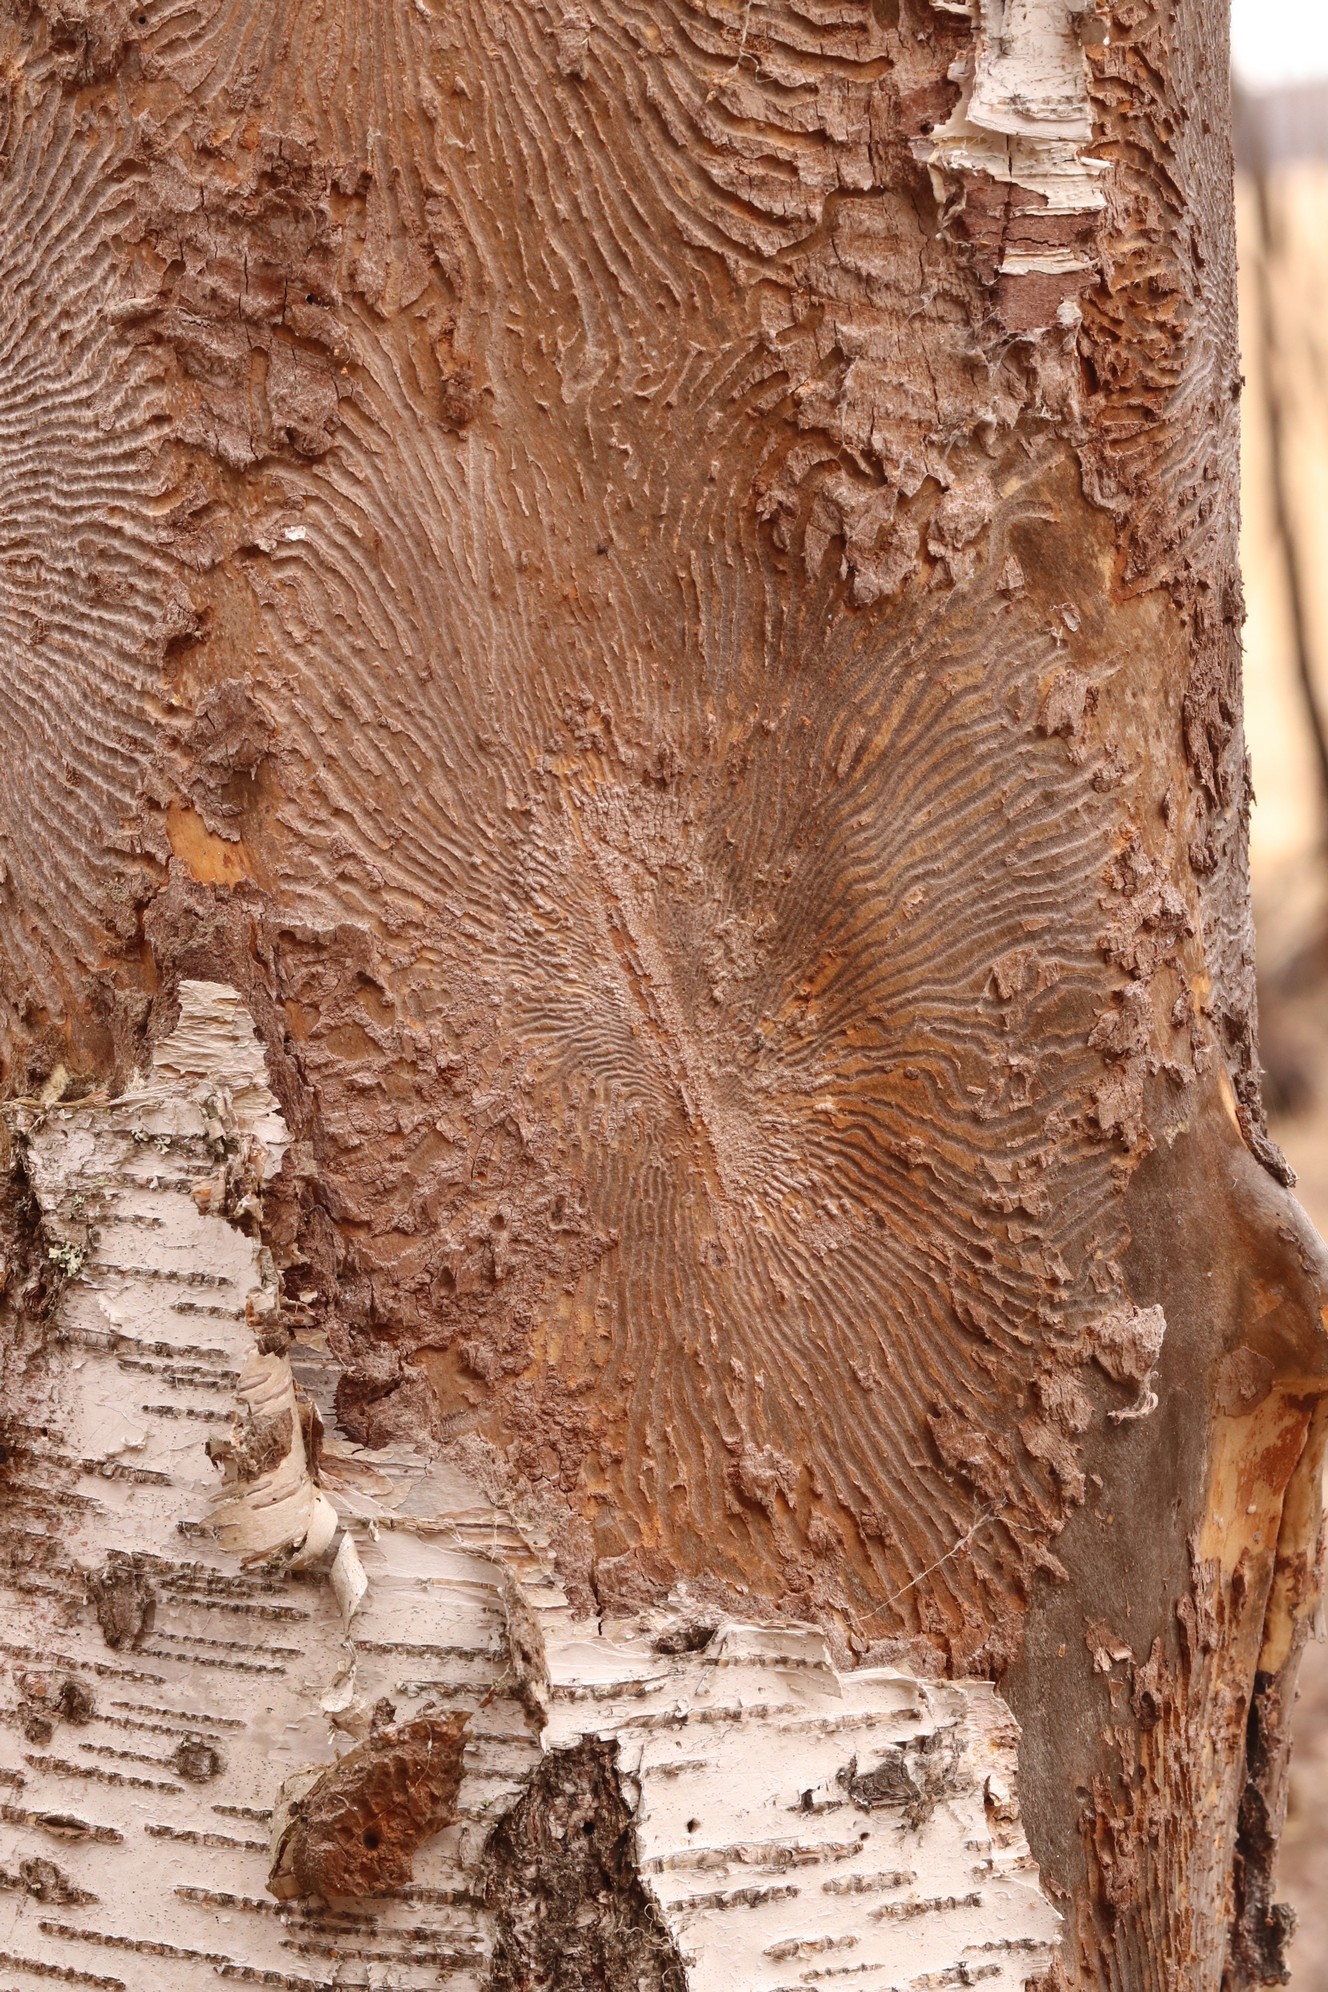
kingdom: Animalia
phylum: Arthropoda
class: Insecta
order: Coleoptera
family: Curculionidae
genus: Scolytus
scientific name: Scolytus ratzeburgii
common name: Birch bark beetle
